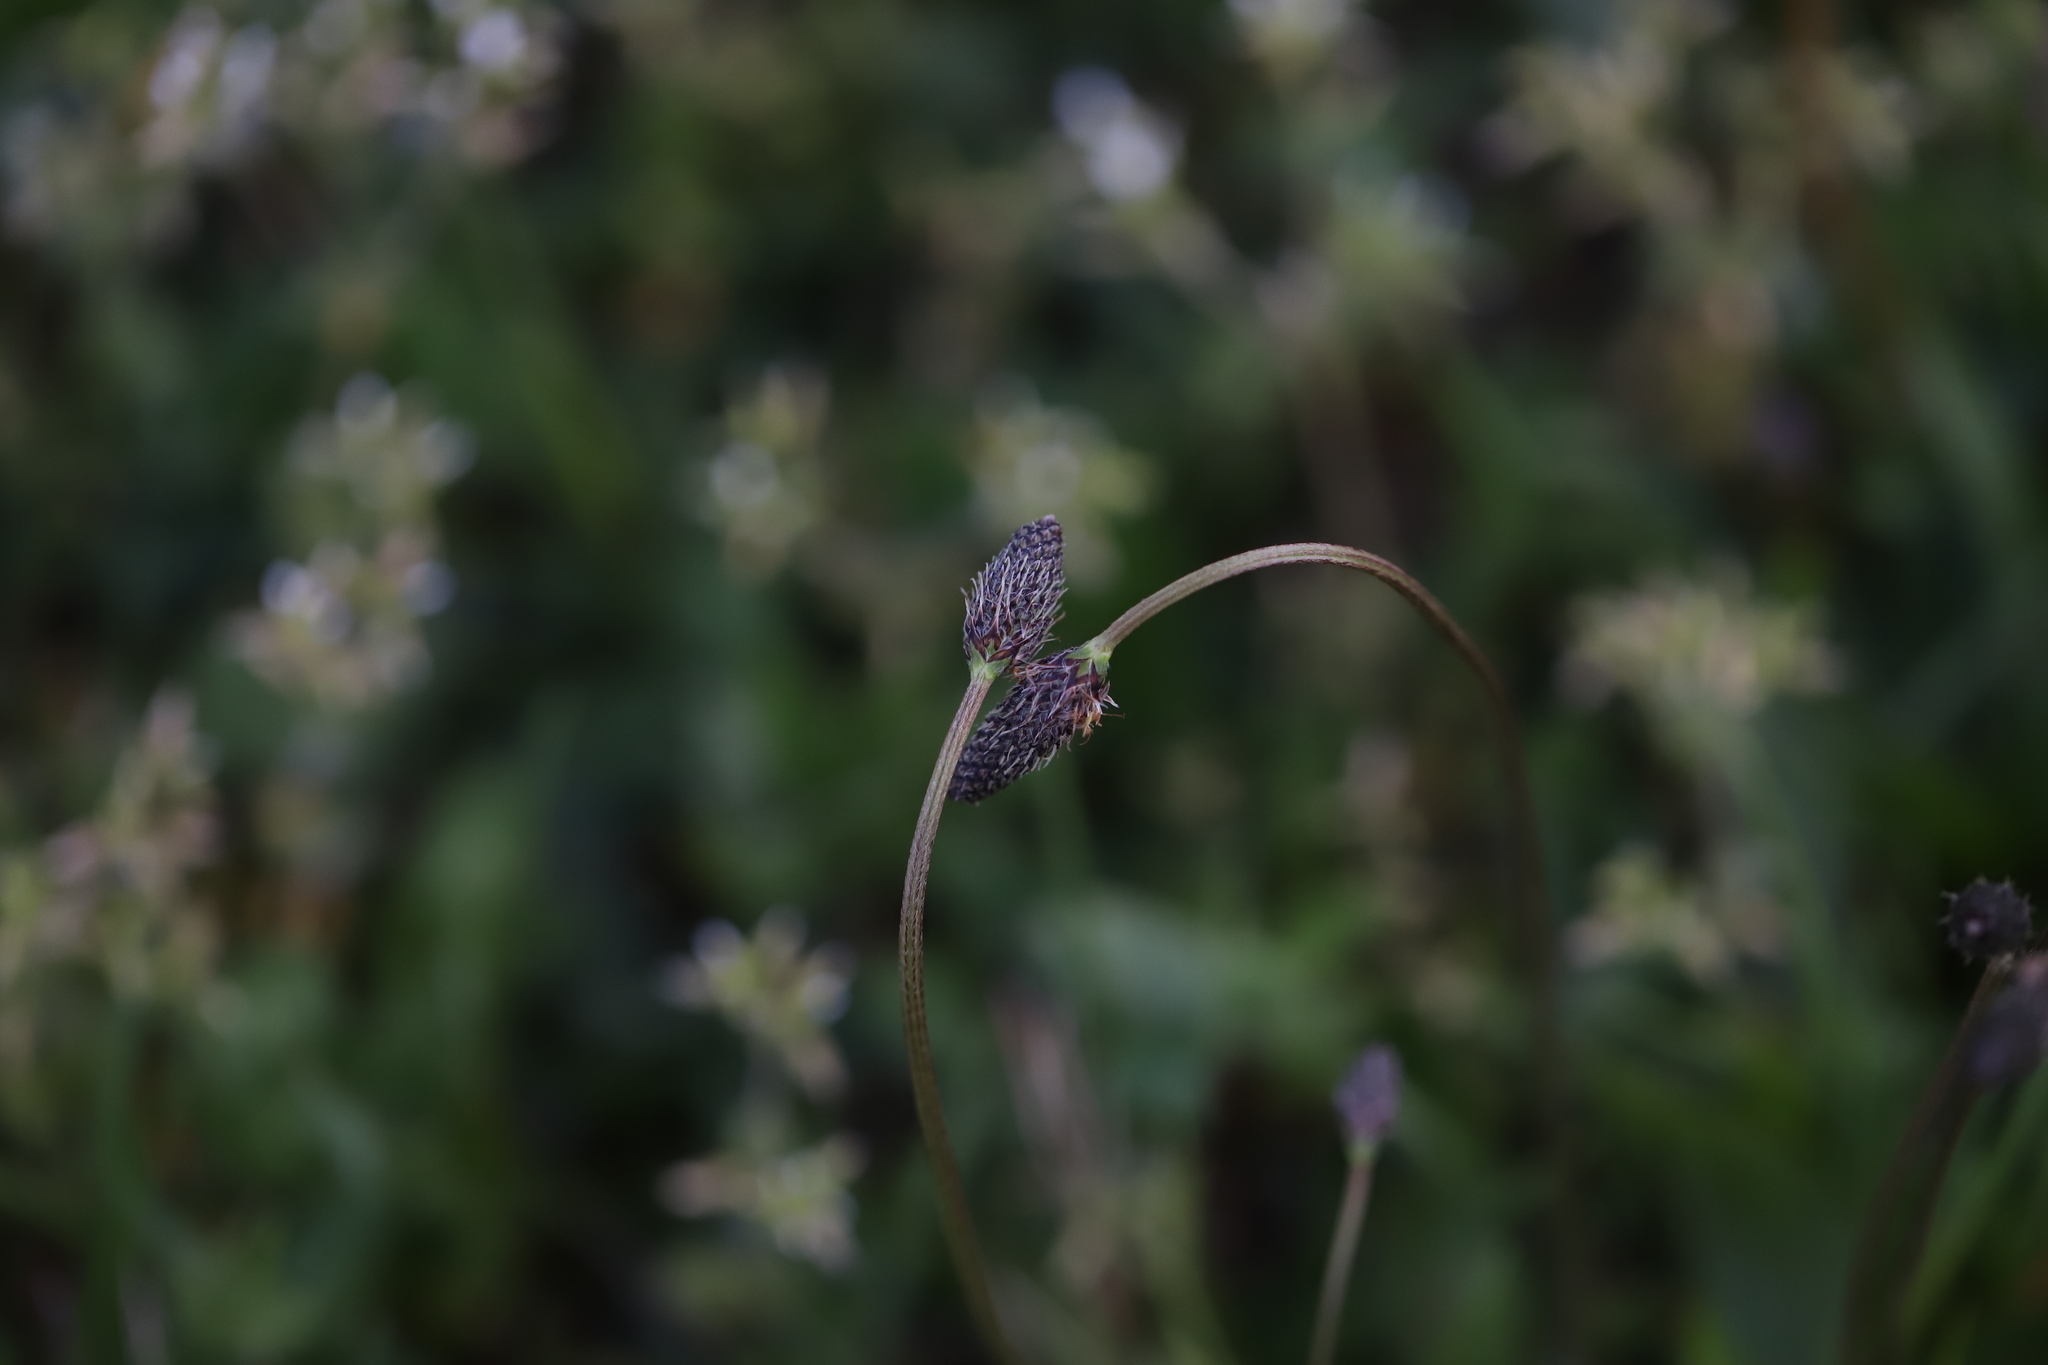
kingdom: Plantae
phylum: Tracheophyta
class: Magnoliopsida
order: Lamiales
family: Plantaginaceae
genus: Plantago
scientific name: Plantago lanceolata
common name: Ribwort plantain
